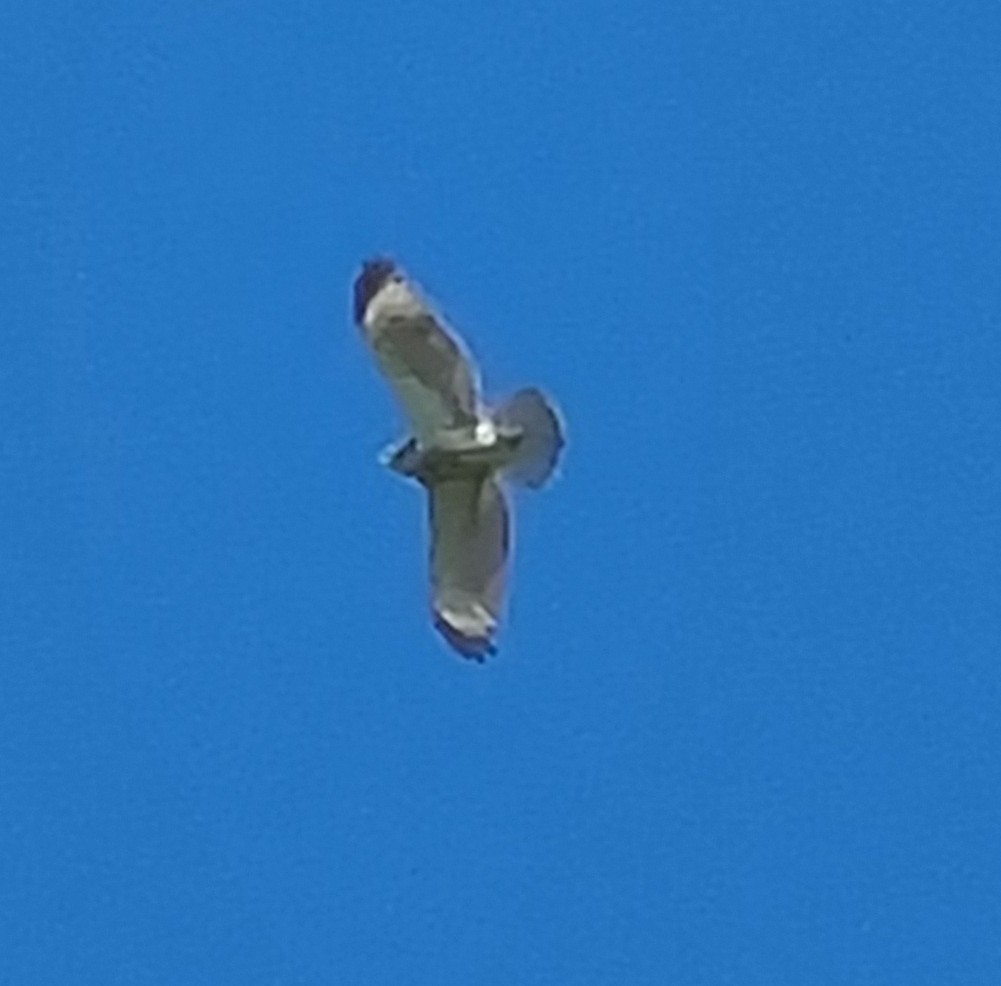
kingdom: Animalia
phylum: Chordata
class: Aves
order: Accipitriformes
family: Accipitridae
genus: Buteo
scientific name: Buteo lineatus
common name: Red-shouldered hawk
